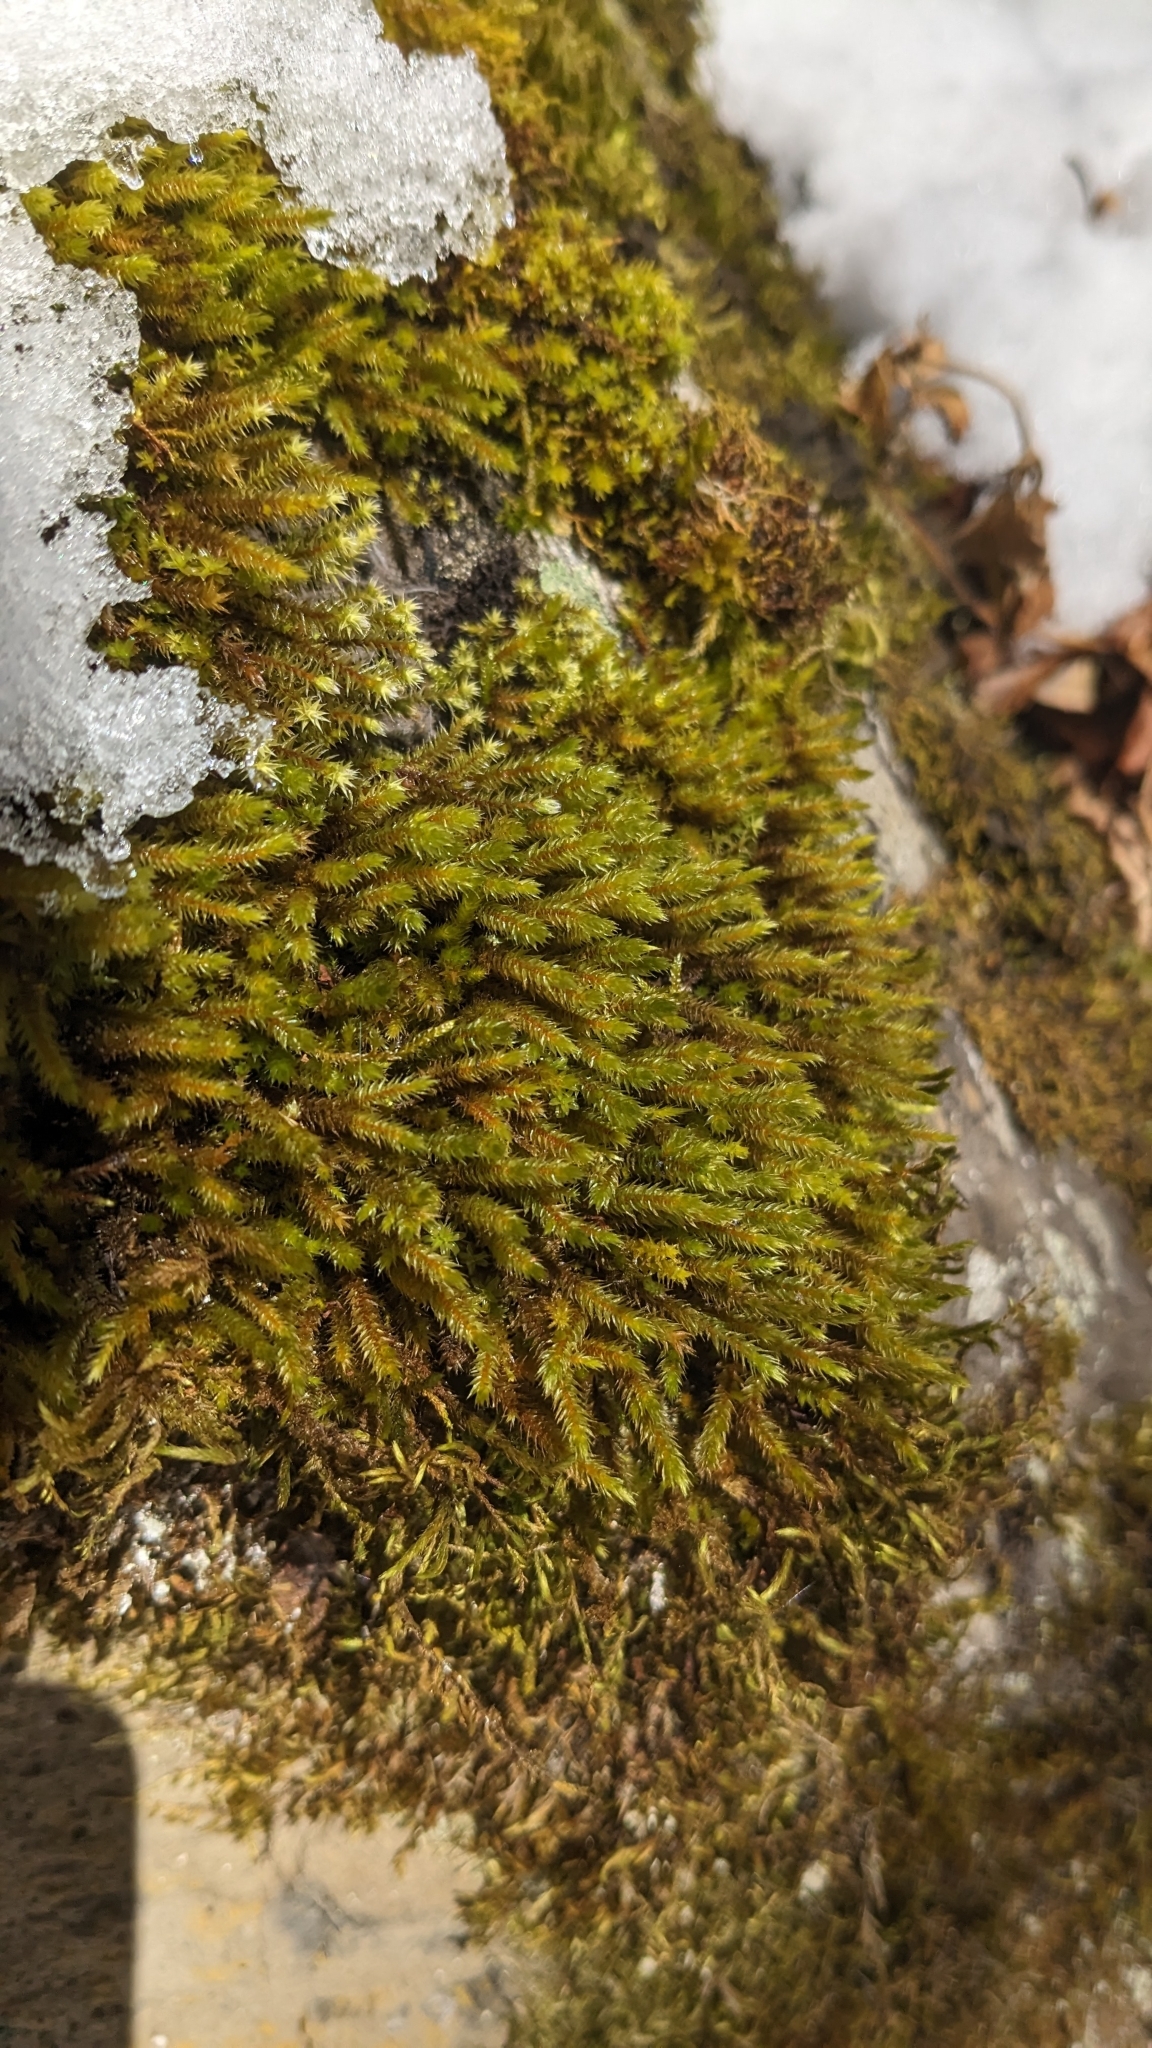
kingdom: Plantae
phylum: Bryophyta
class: Bryopsida
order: Hypnales
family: Leucodontaceae
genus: Leucodon
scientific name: Leucodon sciuroides
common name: Squirrel-tail moss
